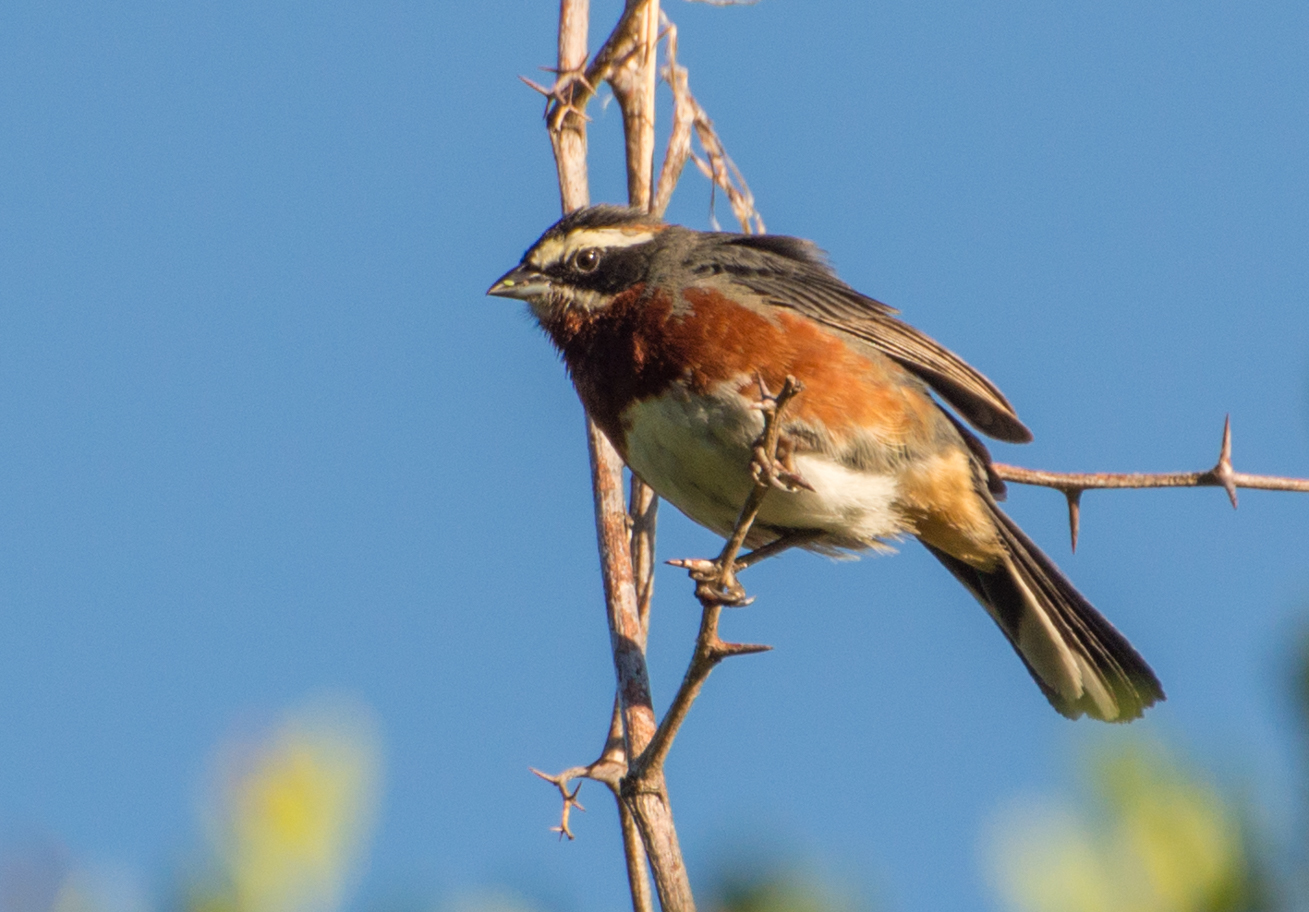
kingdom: Animalia
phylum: Chordata
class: Aves
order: Passeriformes
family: Thraupidae
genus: Poospiza
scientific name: Poospiza whitii
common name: Black-and-chestnut warbling finch
